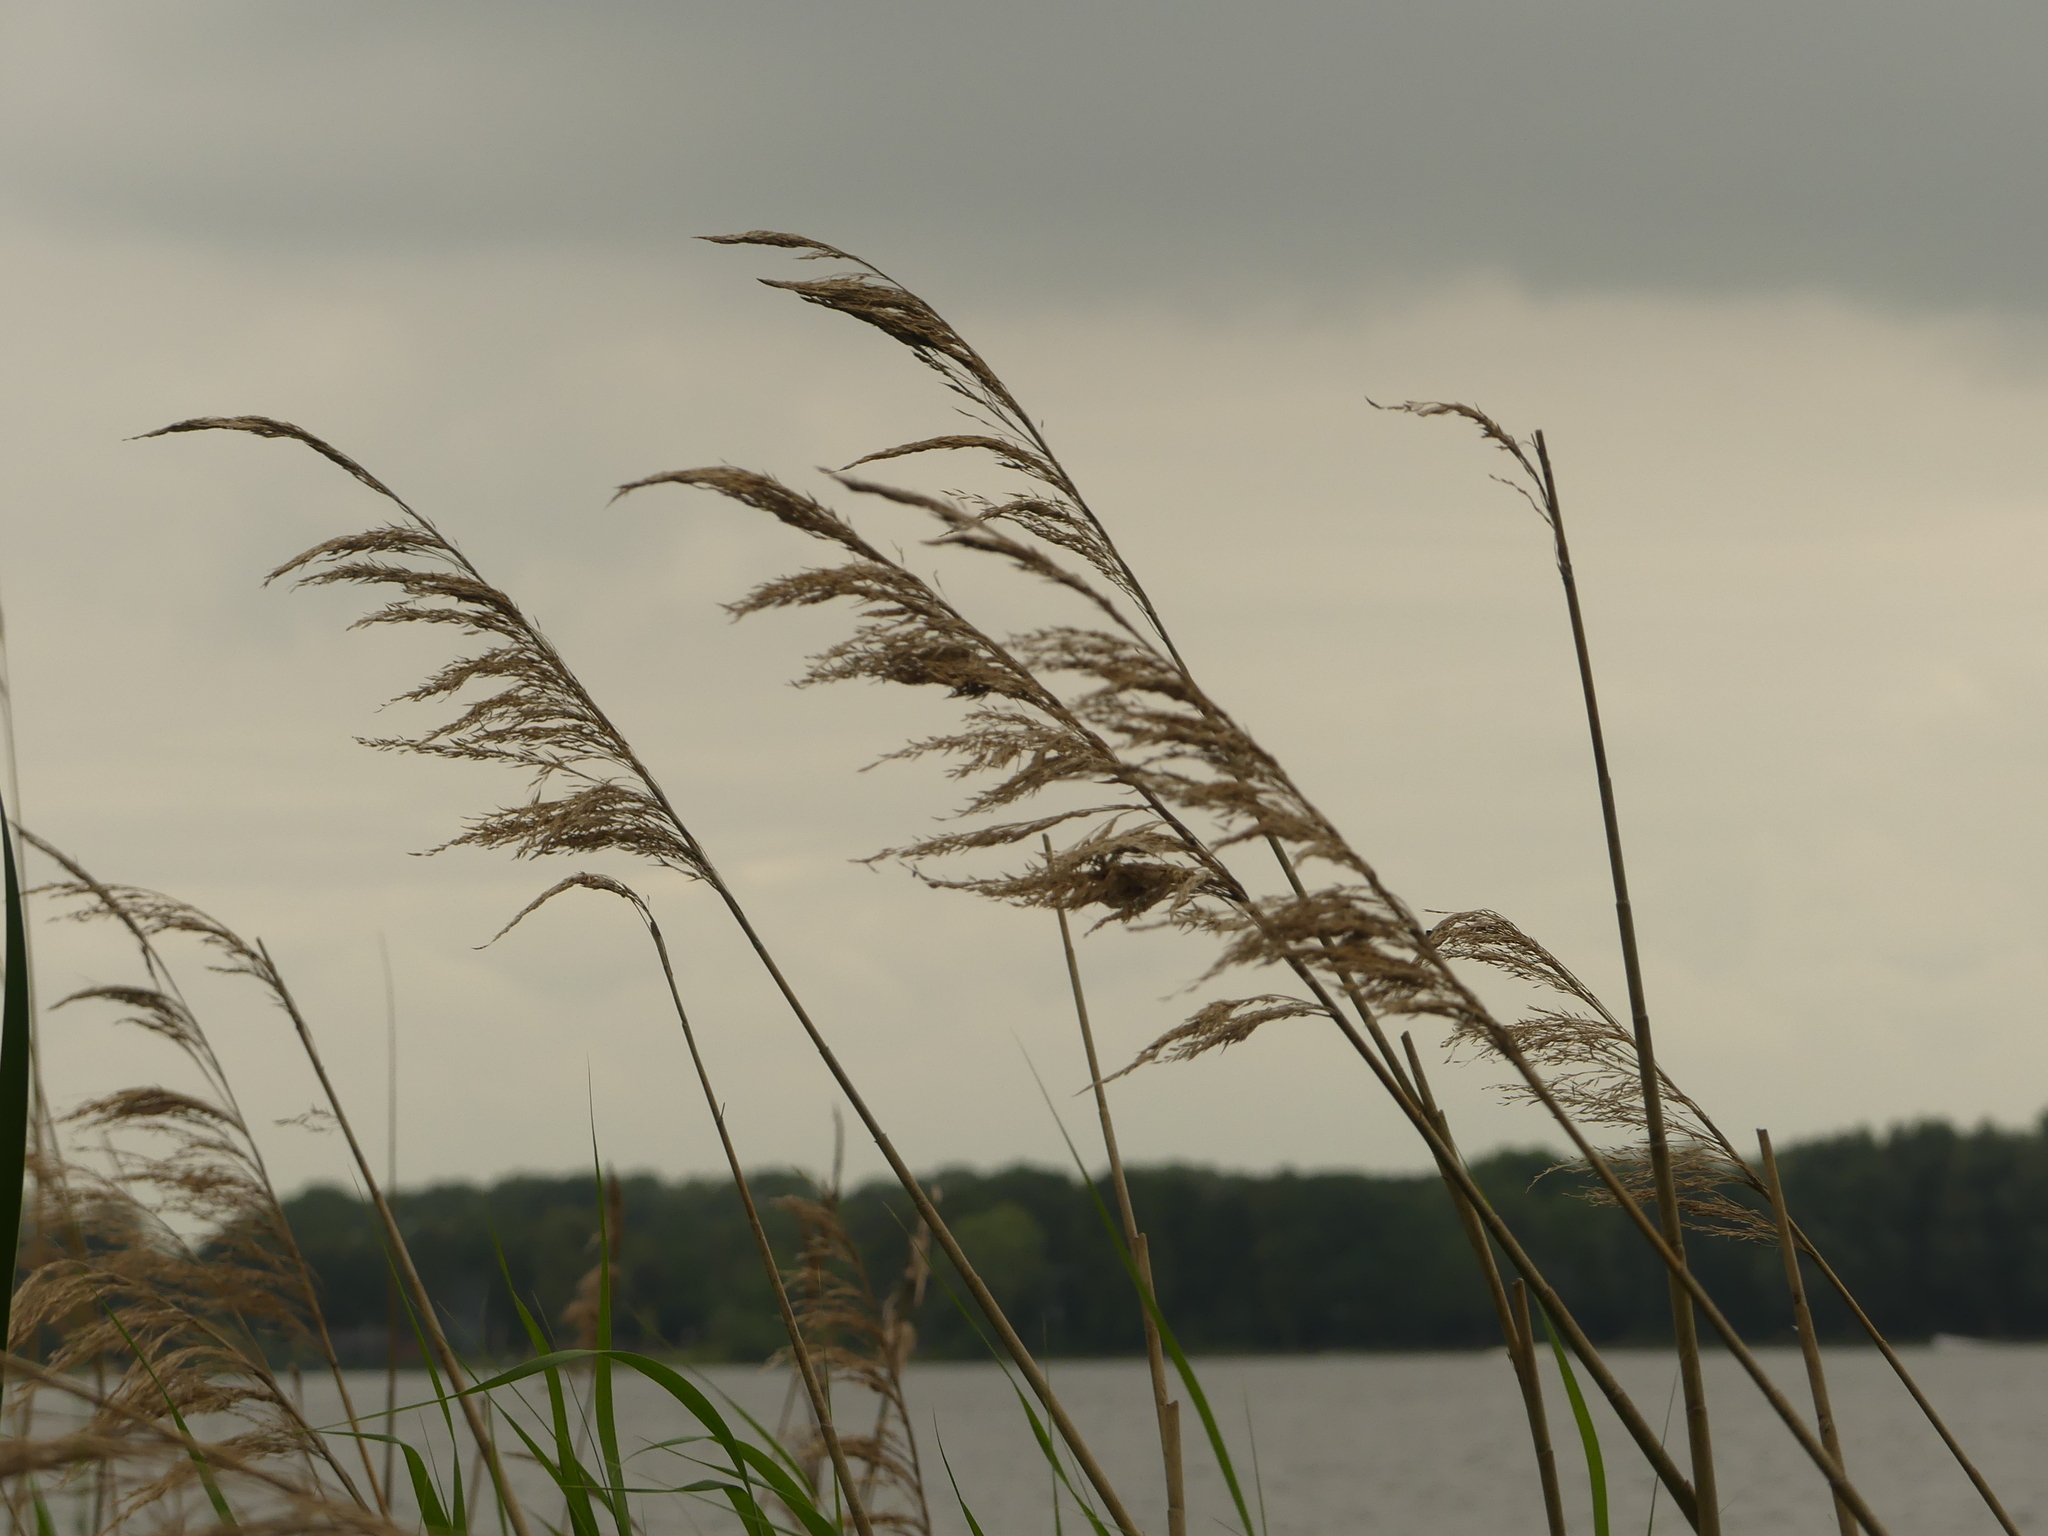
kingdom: Plantae
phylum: Tracheophyta
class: Liliopsida
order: Poales
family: Poaceae
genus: Phragmites
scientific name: Phragmites australis
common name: Common reed
